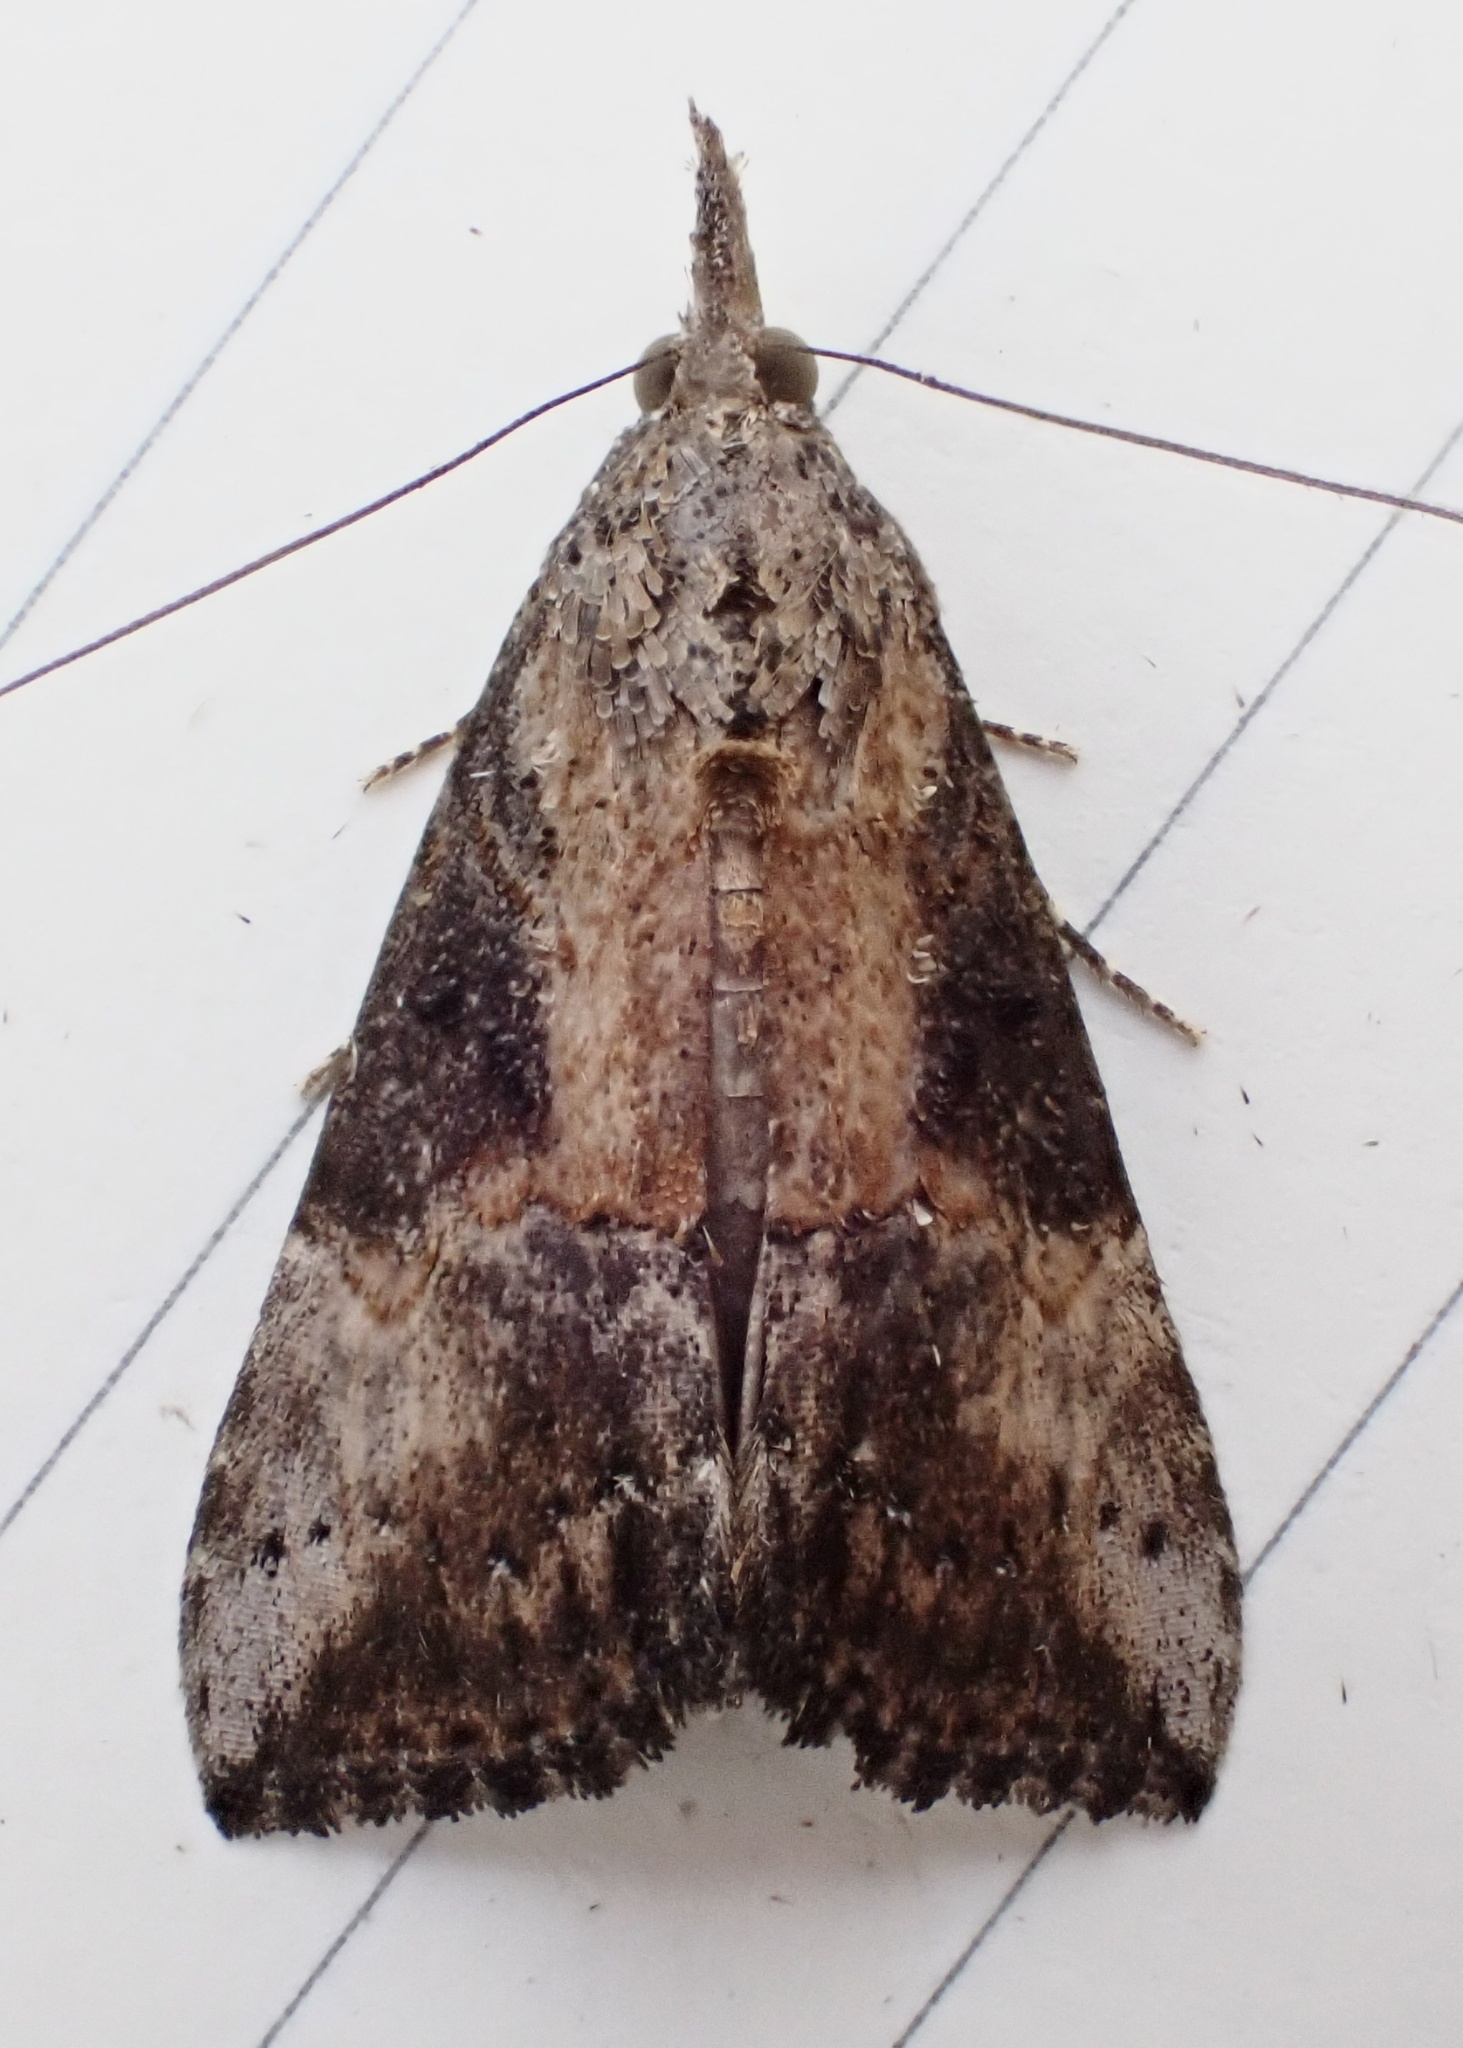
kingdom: Animalia
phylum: Arthropoda
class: Insecta
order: Lepidoptera
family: Erebidae
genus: Hypena
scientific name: Hypena scabra
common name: Green cloverworm
